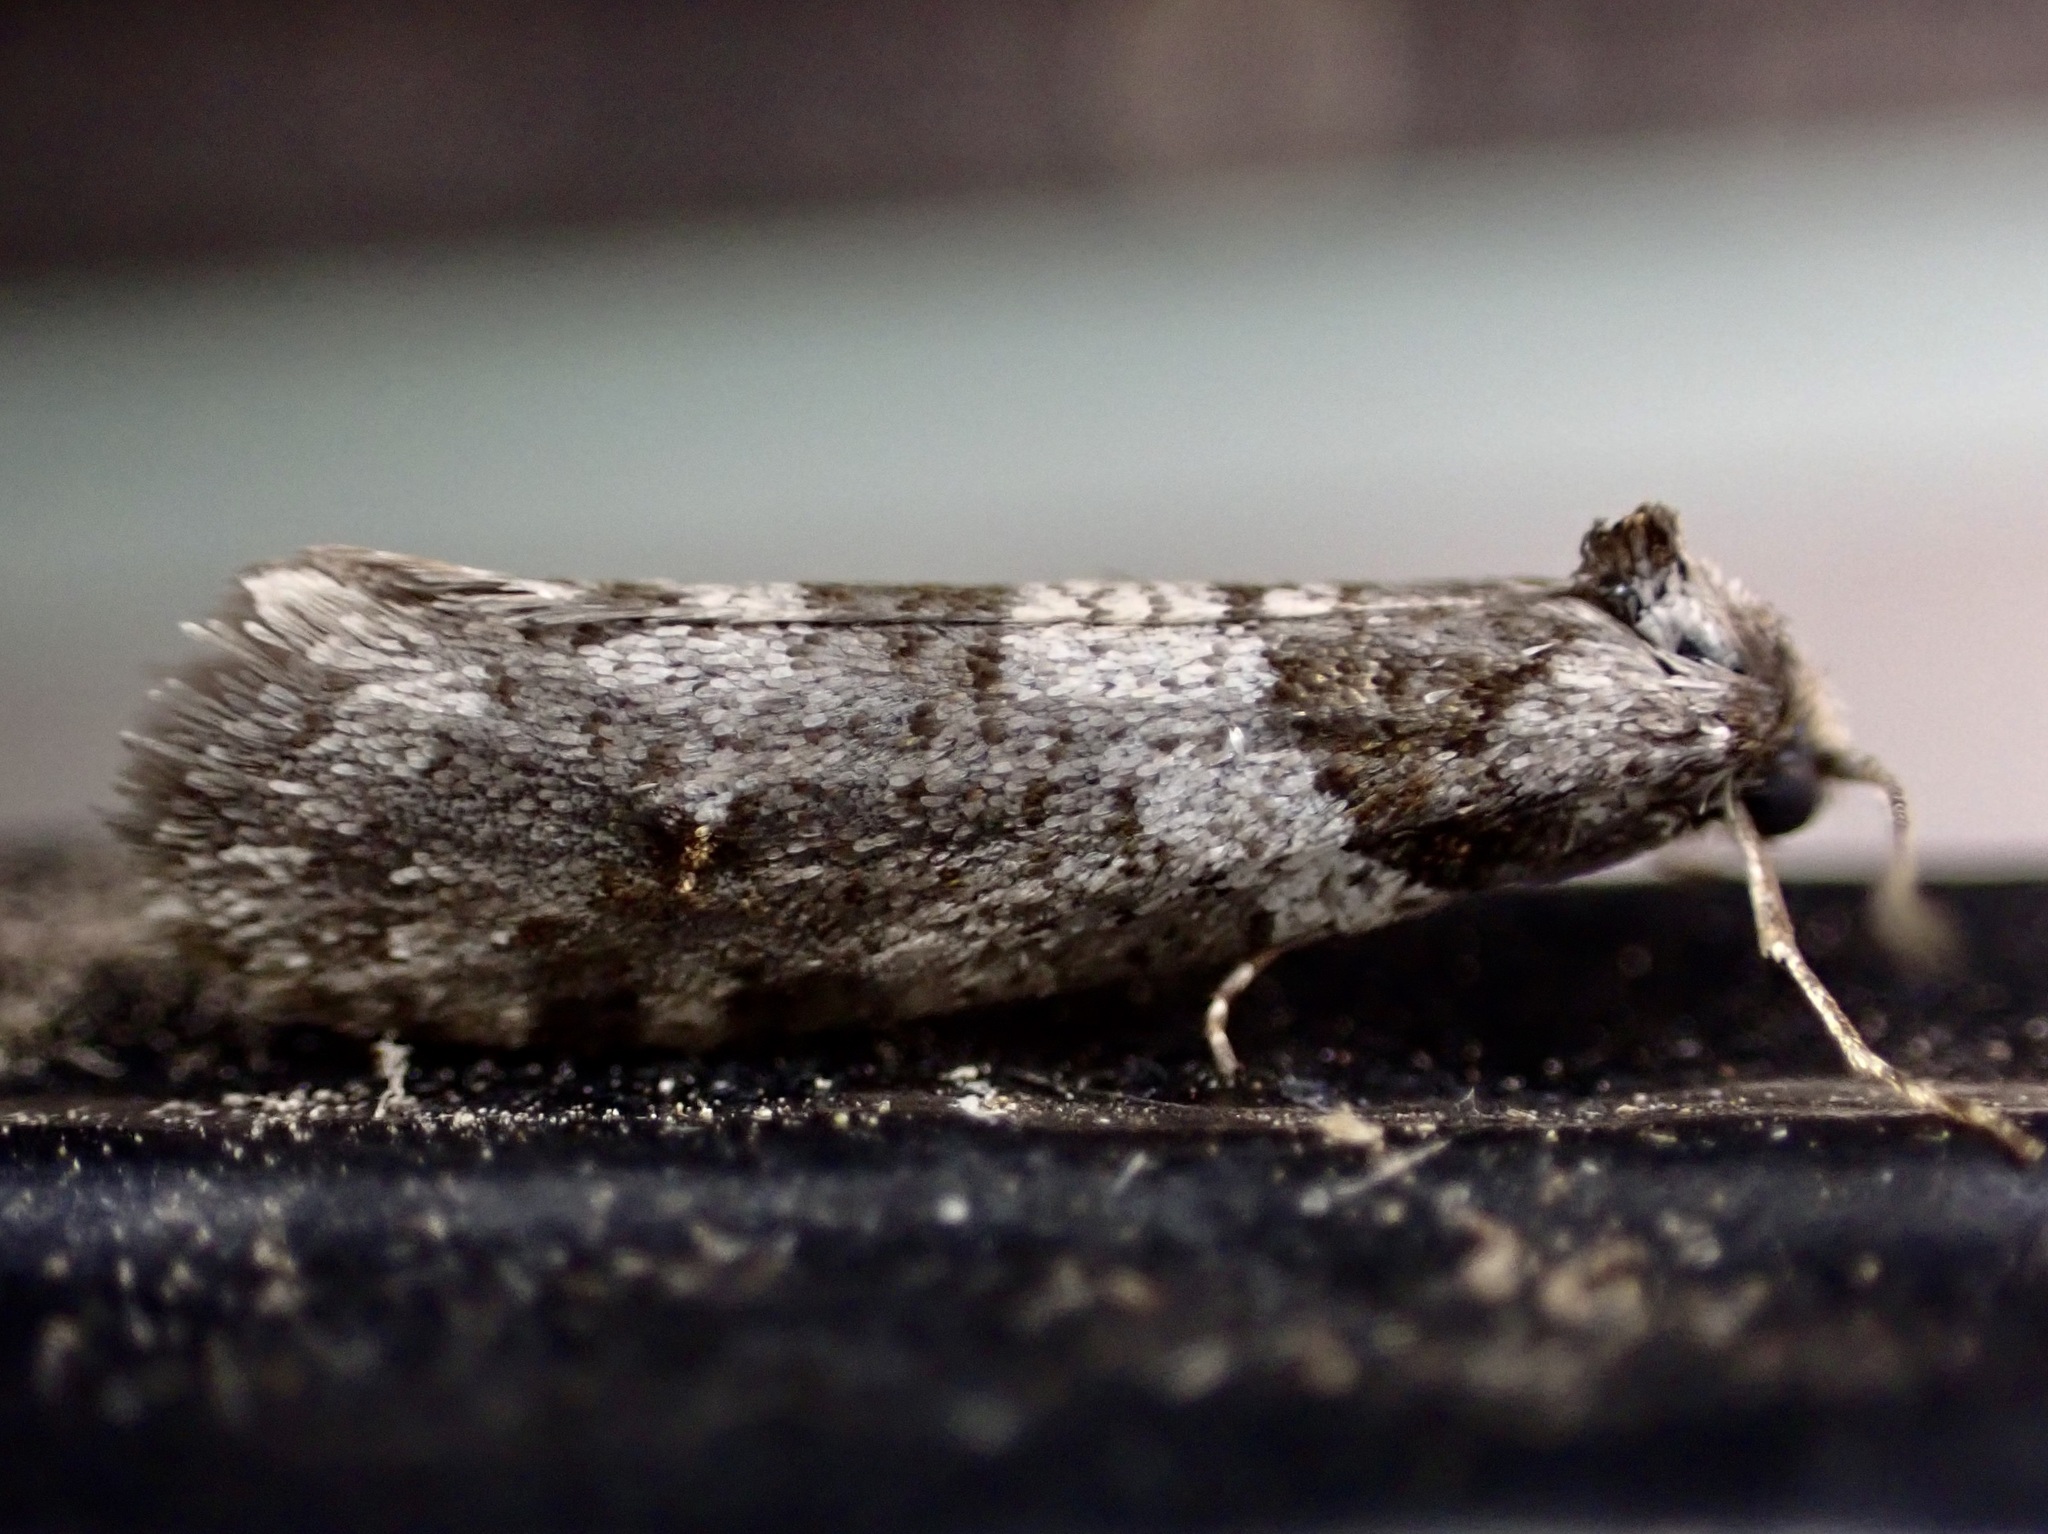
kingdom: Animalia
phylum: Arthropoda
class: Insecta
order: Lepidoptera
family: Psychidae
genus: Lepidoscia
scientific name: Lepidoscia heliochares
